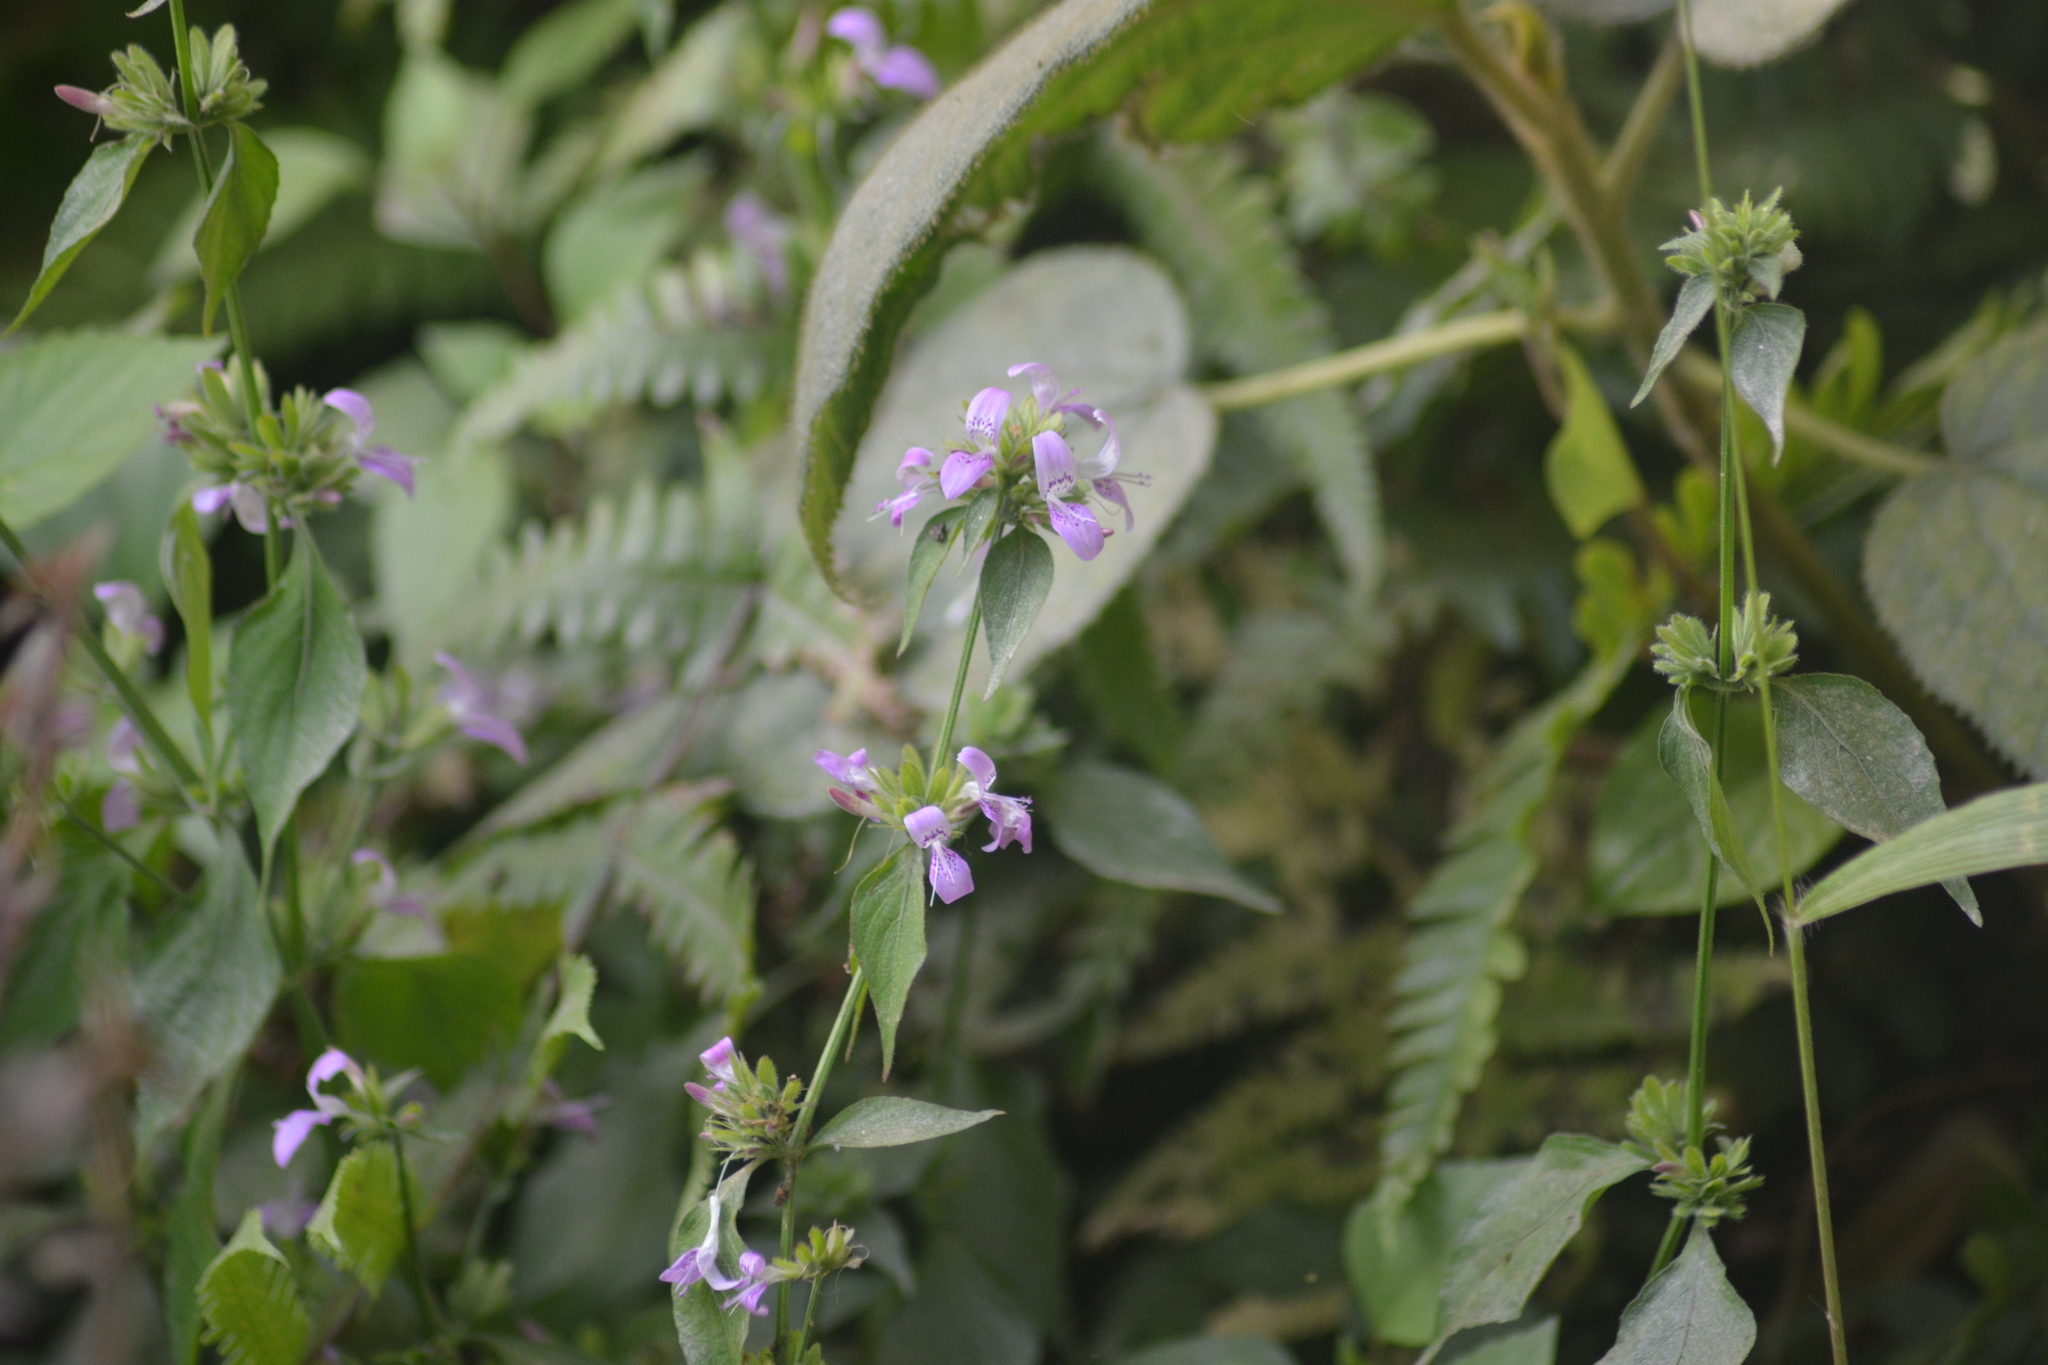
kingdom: Plantae
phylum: Tracheophyta
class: Magnoliopsida
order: Lamiales
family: Acanthaceae
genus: Dicliptera
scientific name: Dicliptera chinensis
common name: Chinese foldwing
